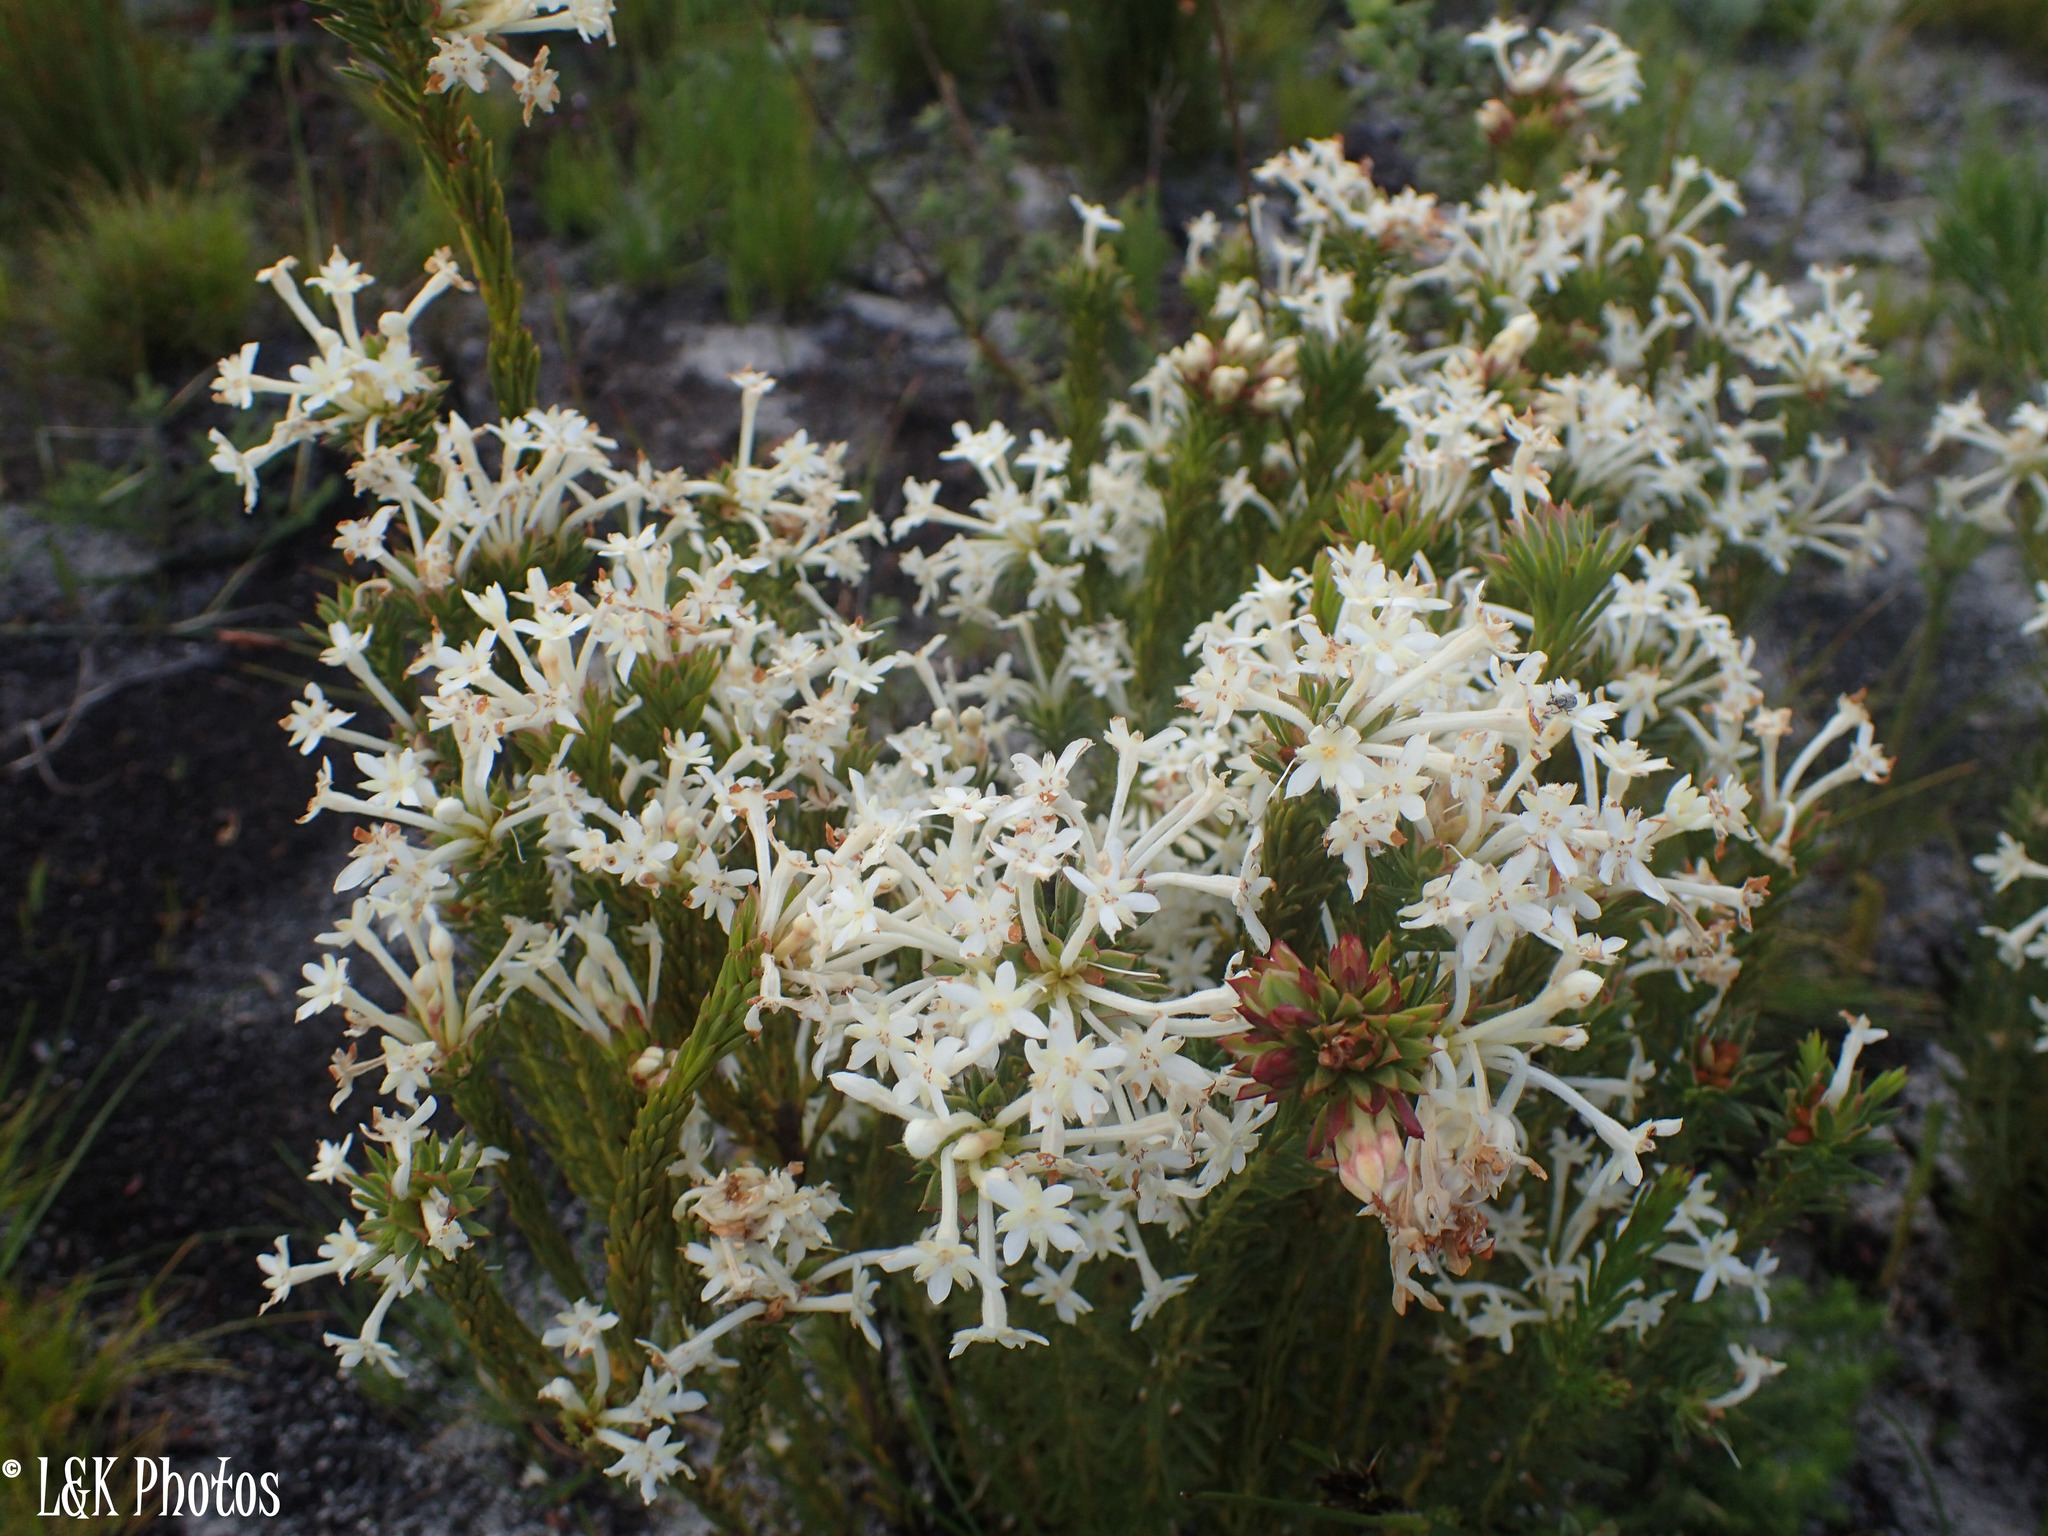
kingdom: Plantae
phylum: Tracheophyta
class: Magnoliopsida
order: Malvales
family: Thymelaeaceae
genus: Gnidia
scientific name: Gnidia pinifolia
